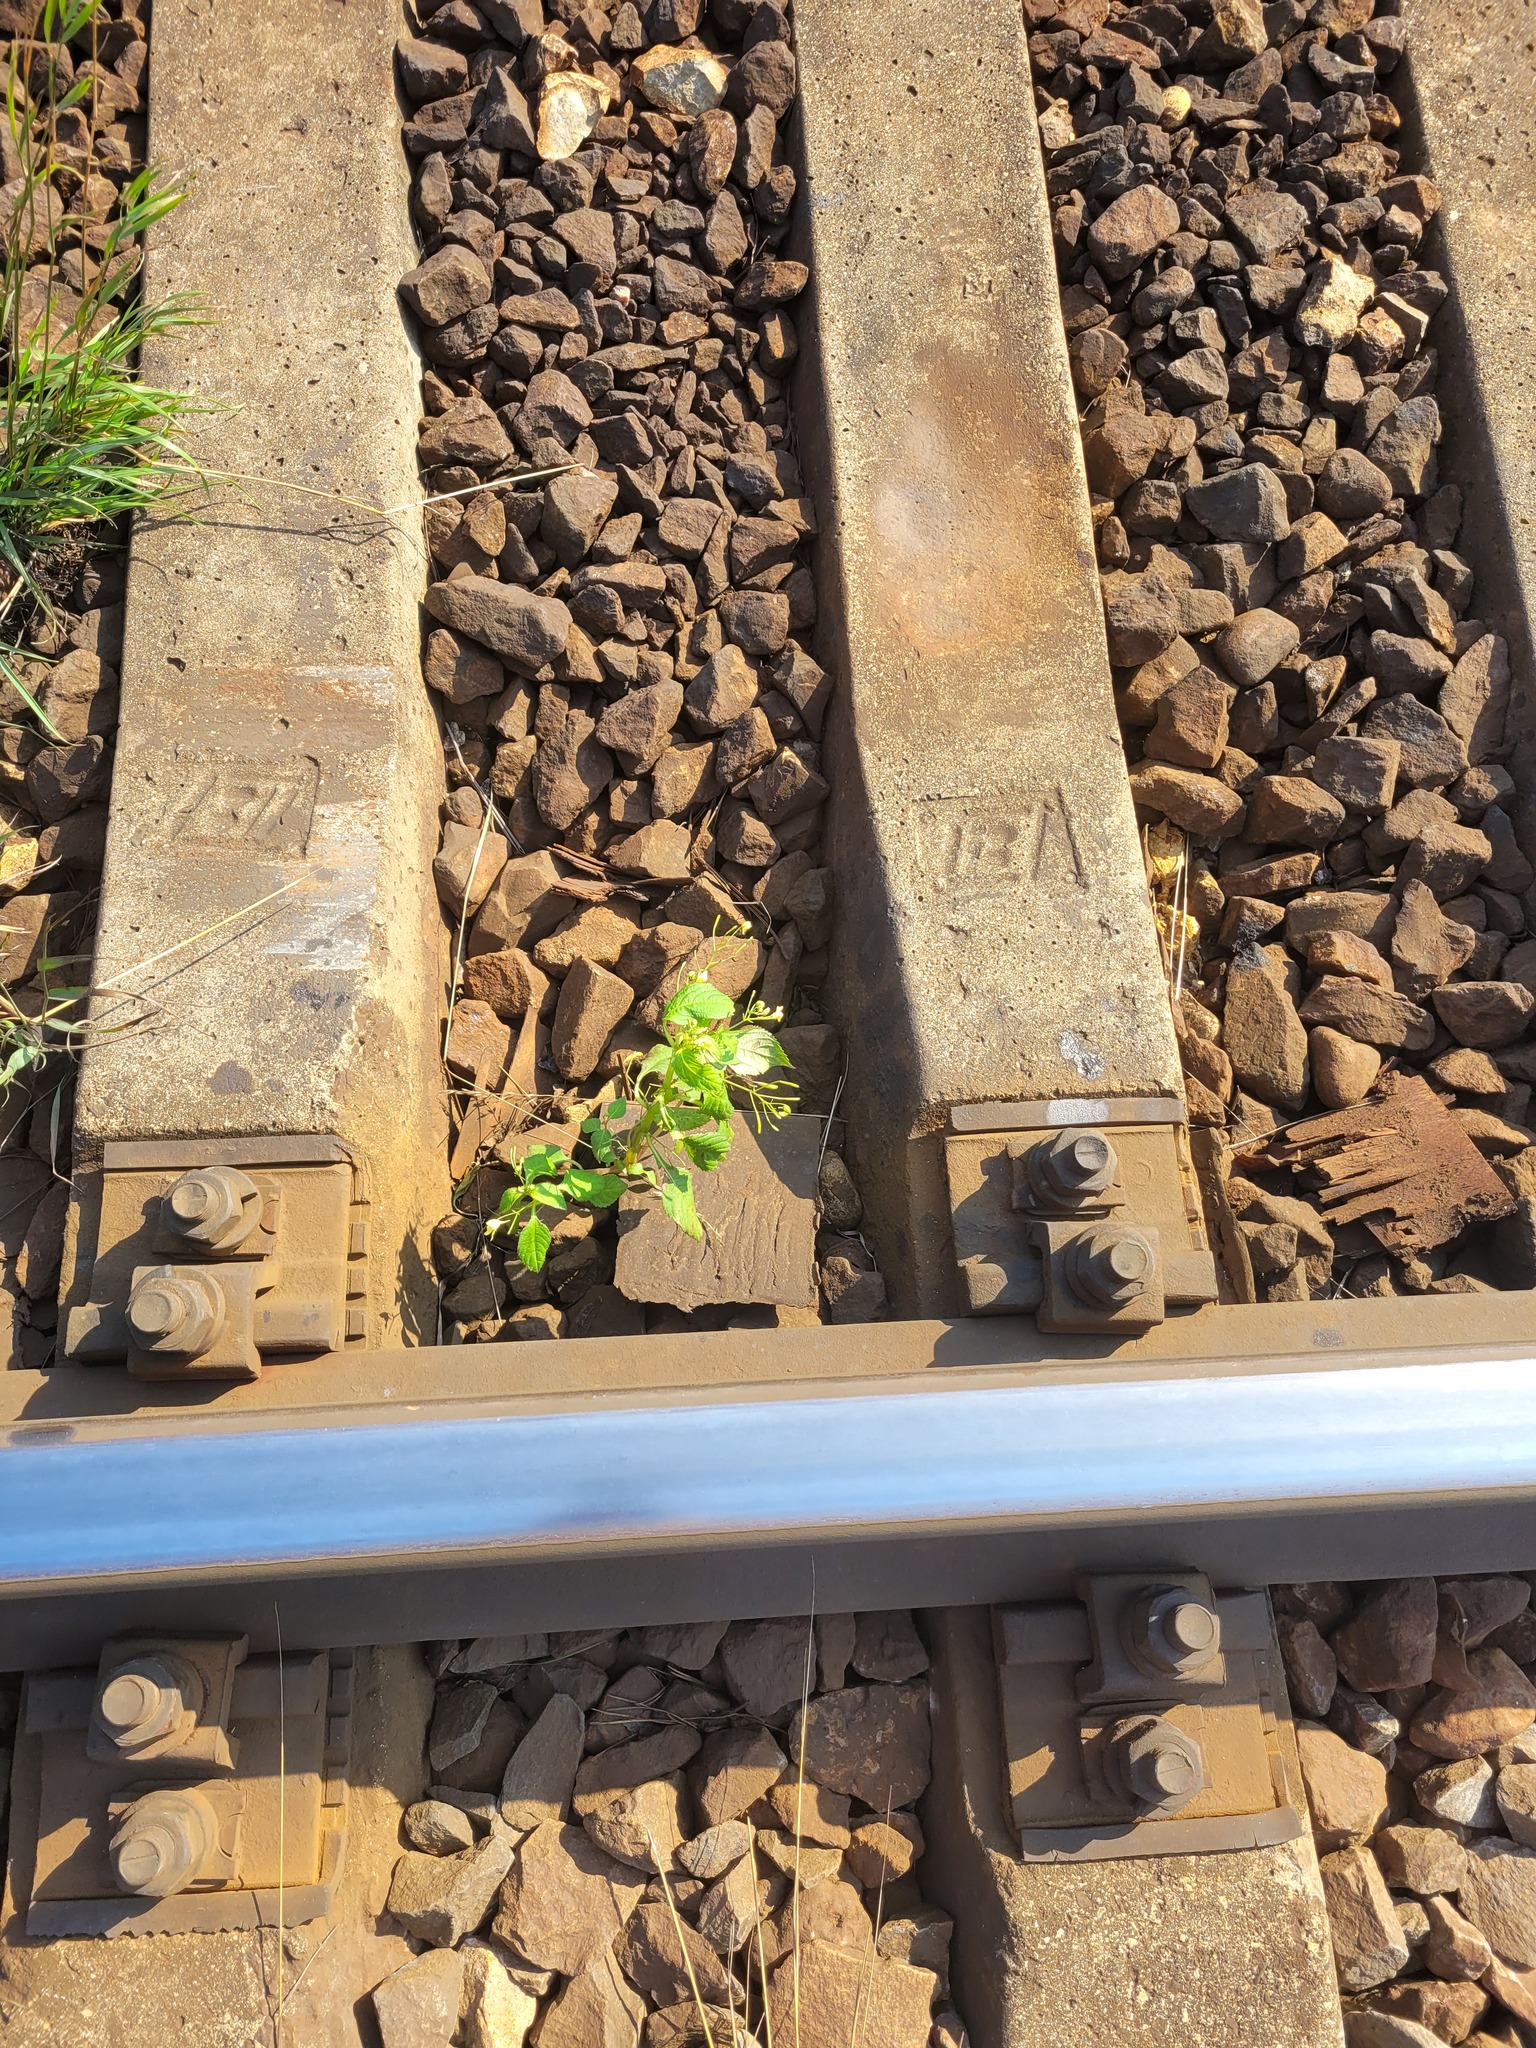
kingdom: Plantae
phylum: Tracheophyta
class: Magnoliopsida
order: Ericales
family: Balsaminaceae
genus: Impatiens
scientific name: Impatiens parviflora
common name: Small balsam
